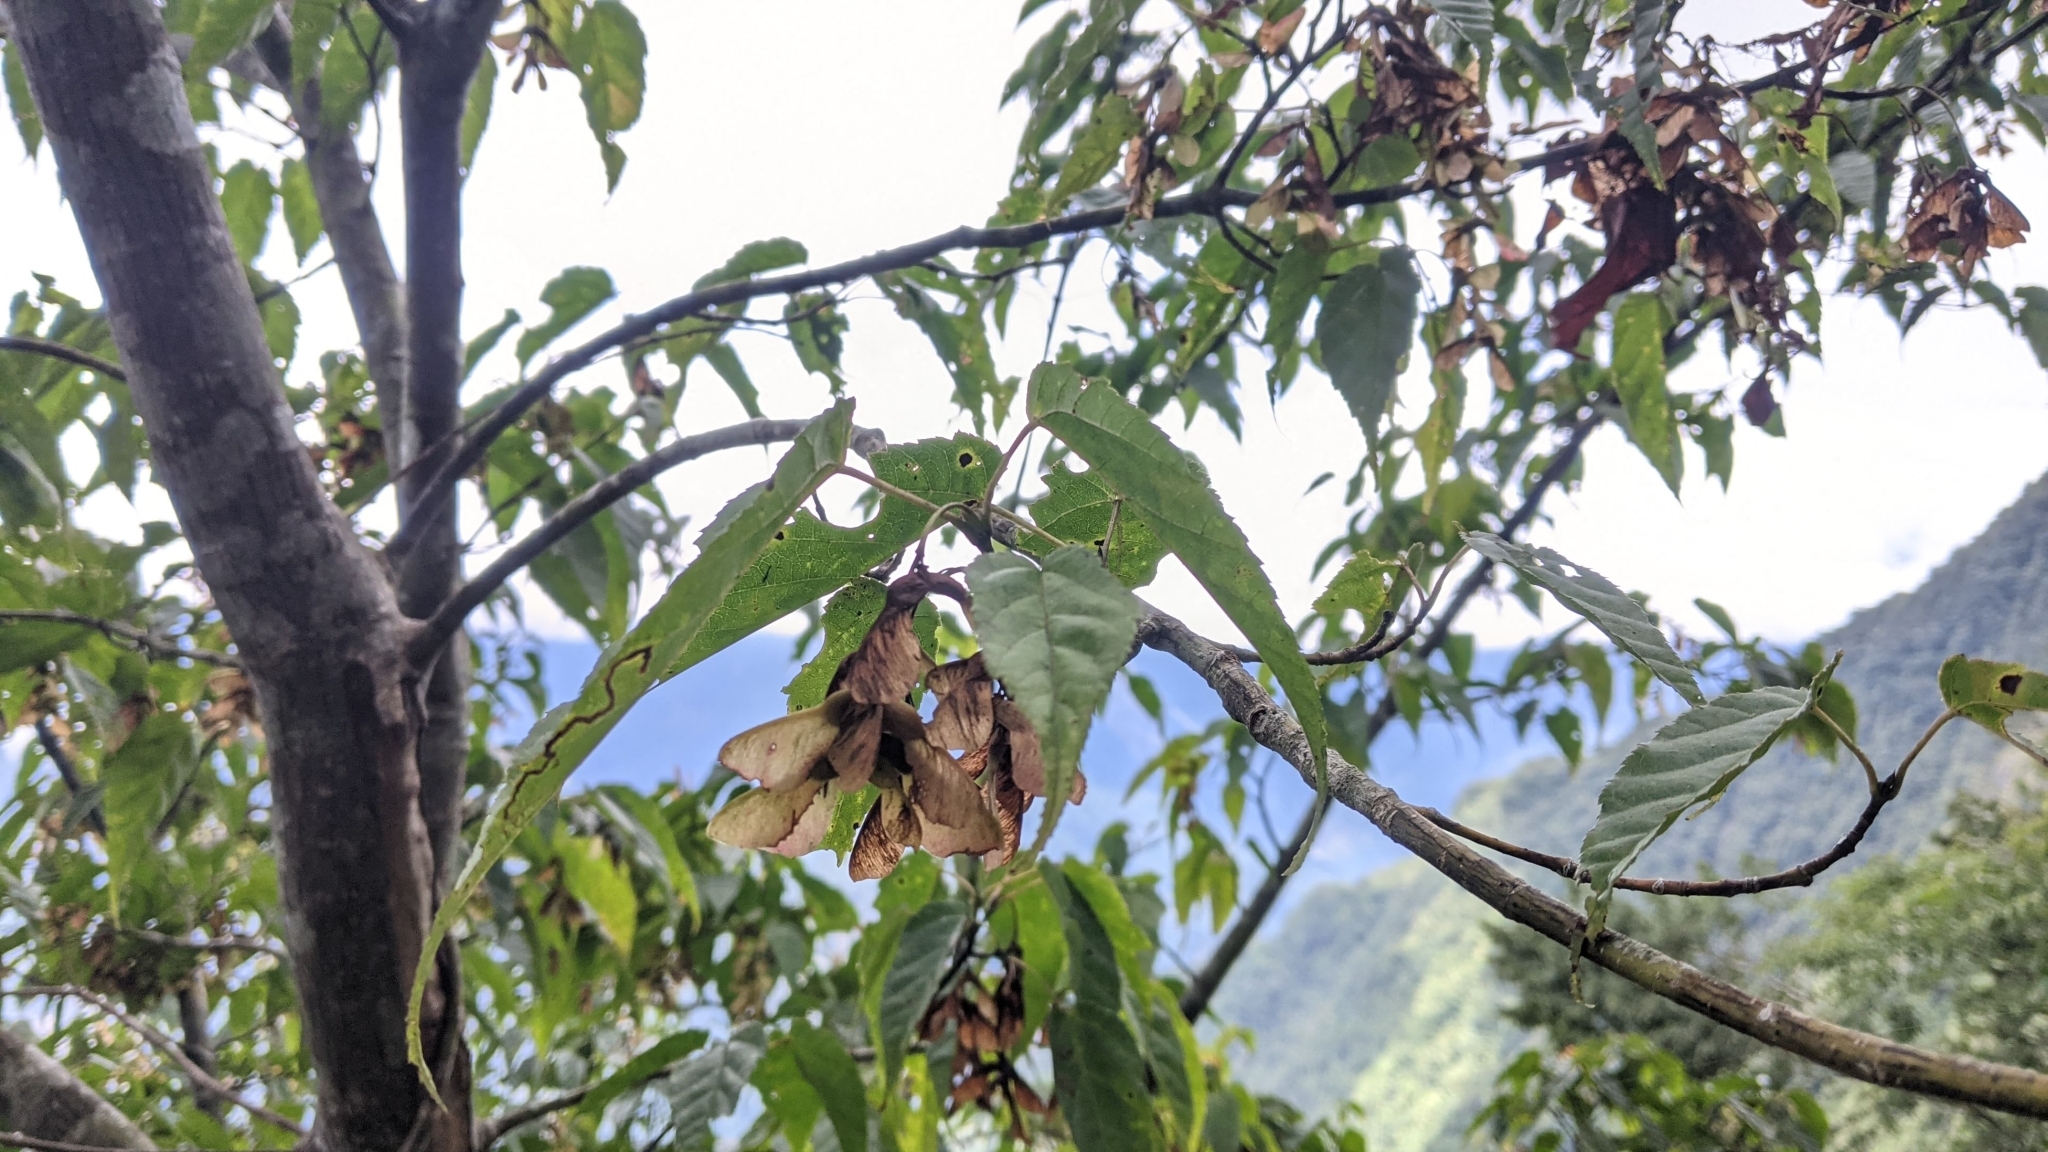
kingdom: Plantae
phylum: Tracheophyta
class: Magnoliopsida
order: Sapindales
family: Sapindaceae
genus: Acer
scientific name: Acer caudatifolium
